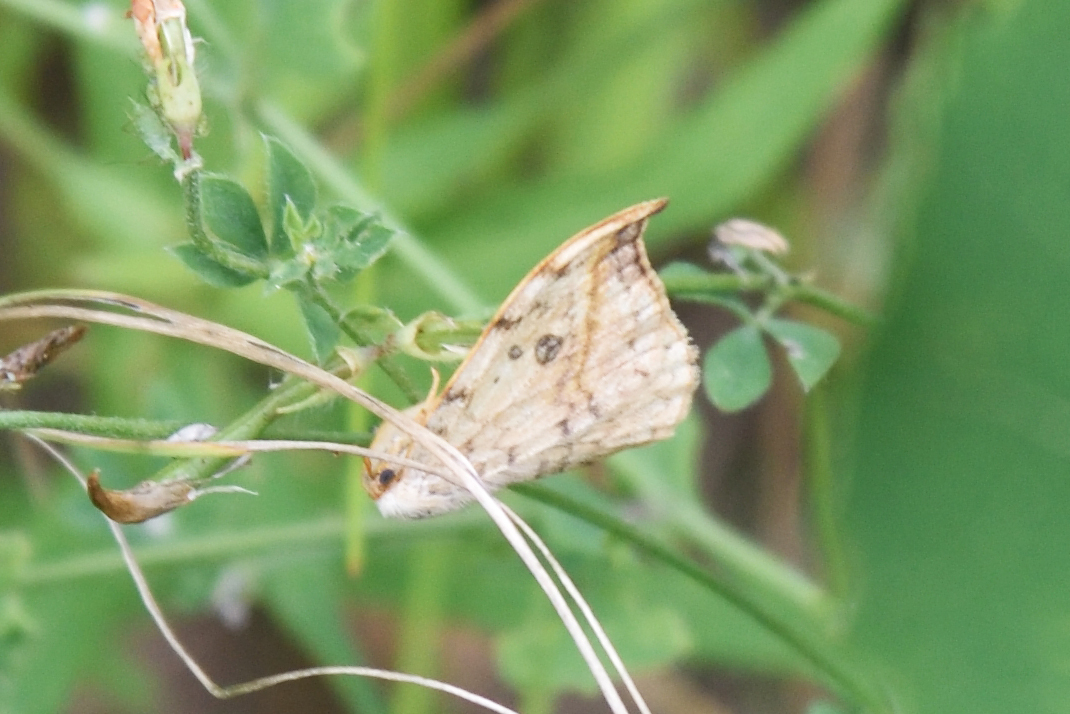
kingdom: Animalia
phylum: Arthropoda
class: Insecta
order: Lepidoptera
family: Drepanidae
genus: Drepana
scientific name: Drepana falcataria
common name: Pebble hook-tip
